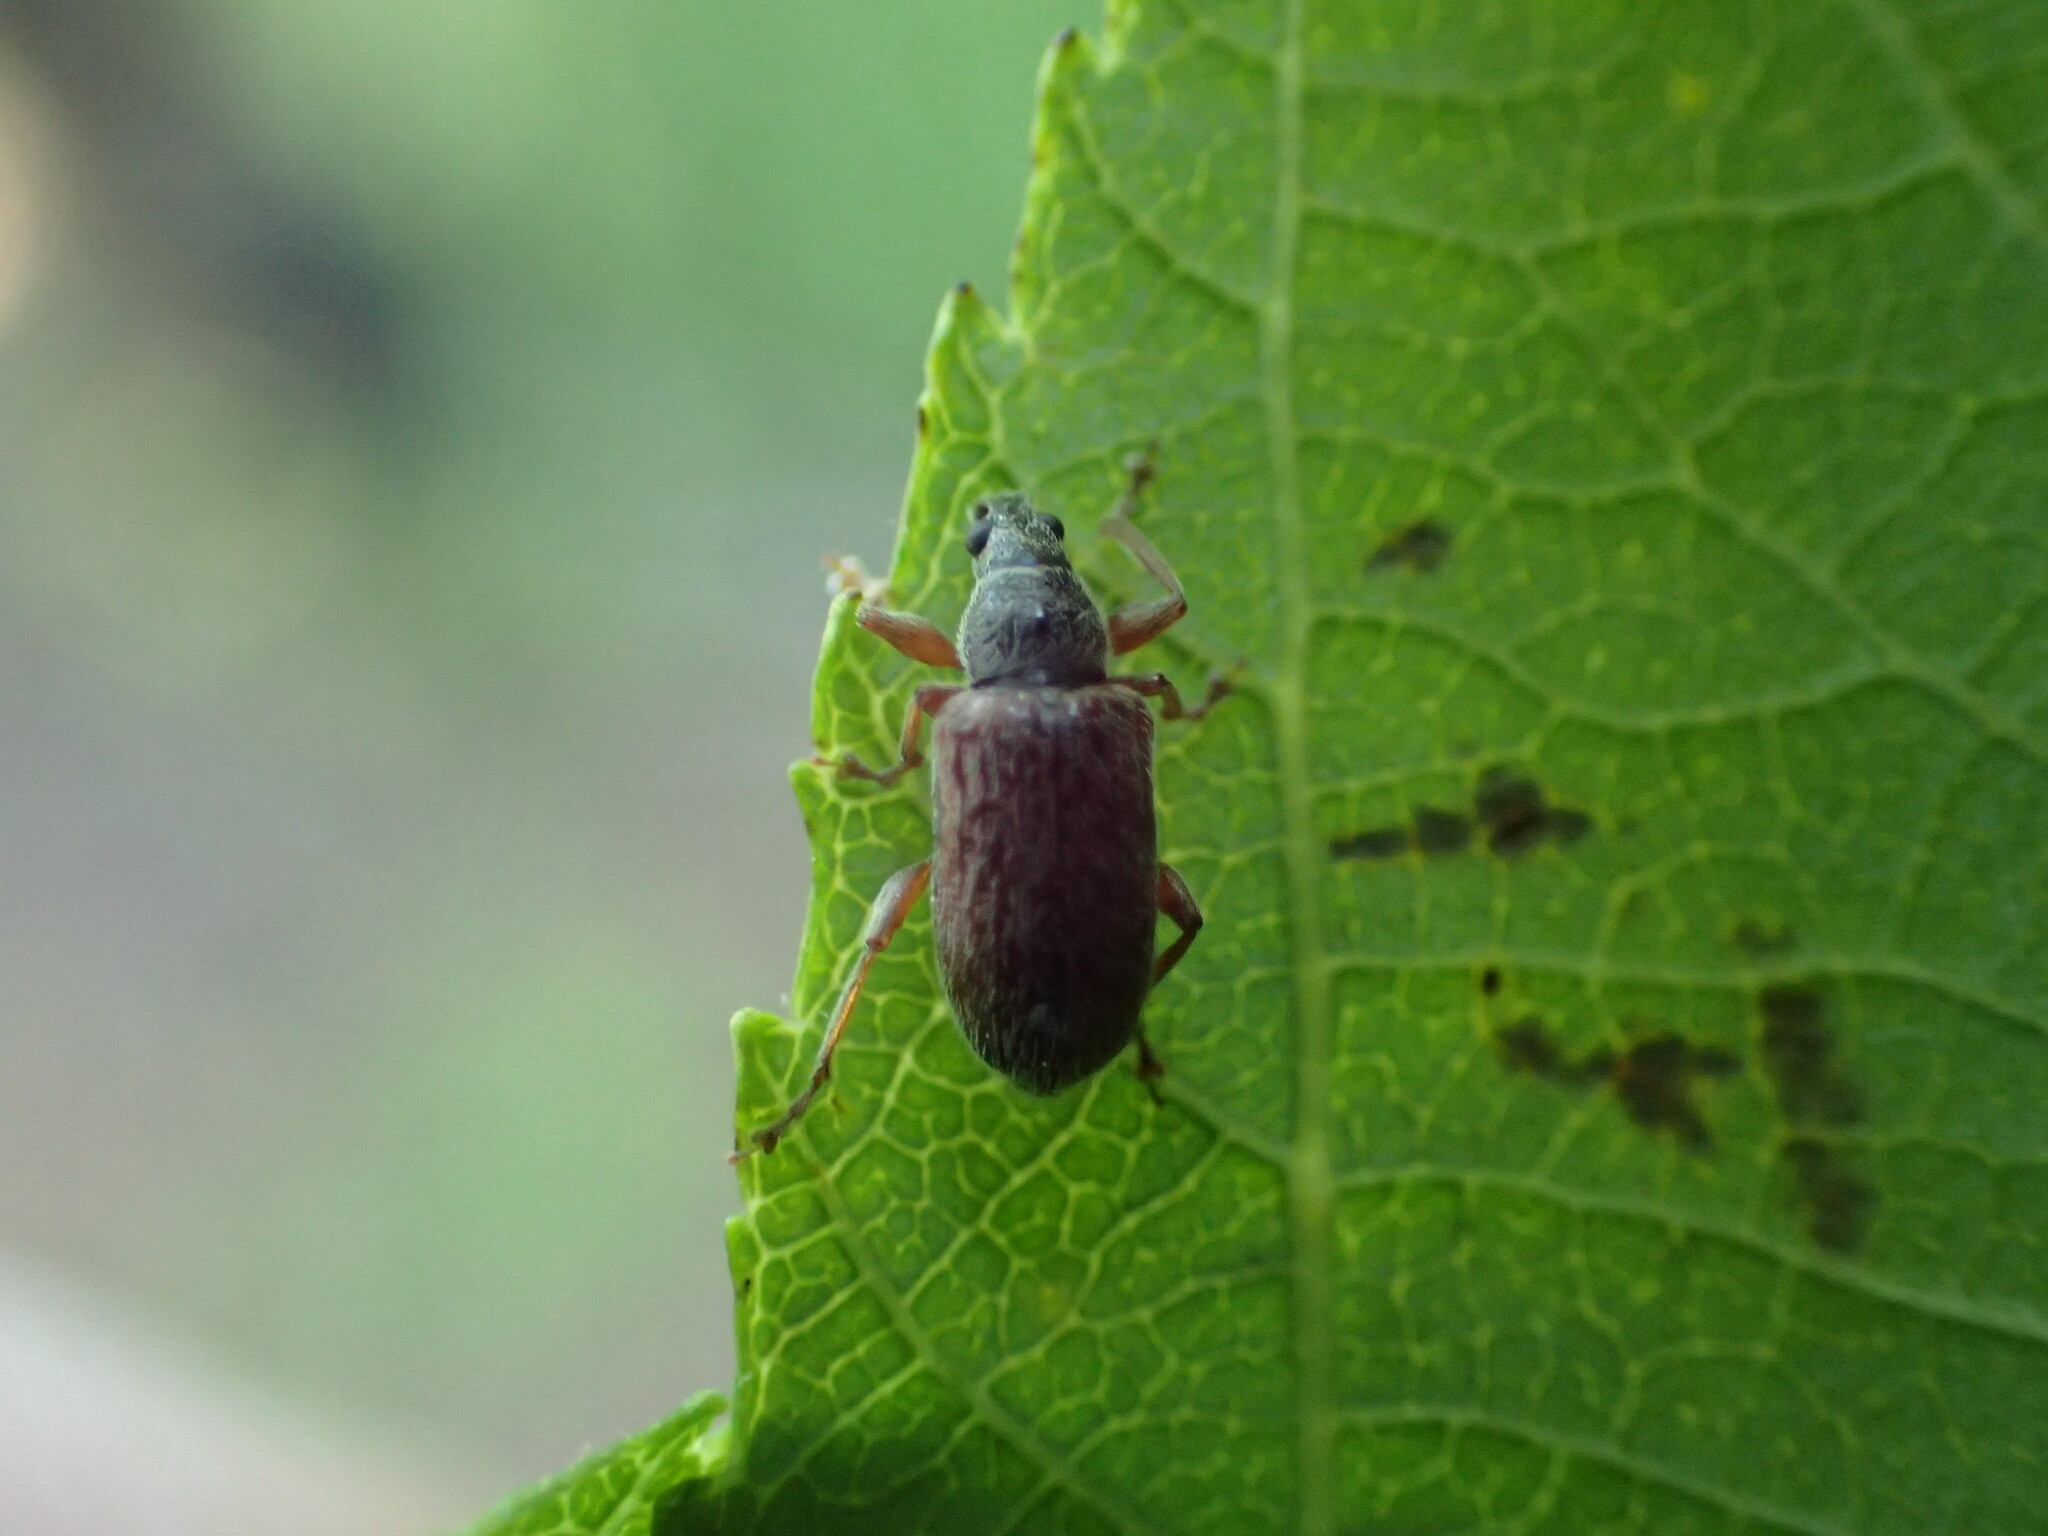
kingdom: Animalia
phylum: Arthropoda
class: Insecta
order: Coleoptera
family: Curculionidae
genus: Phyllobius
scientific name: Phyllobius oblongus
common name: Brown leaf weevil
